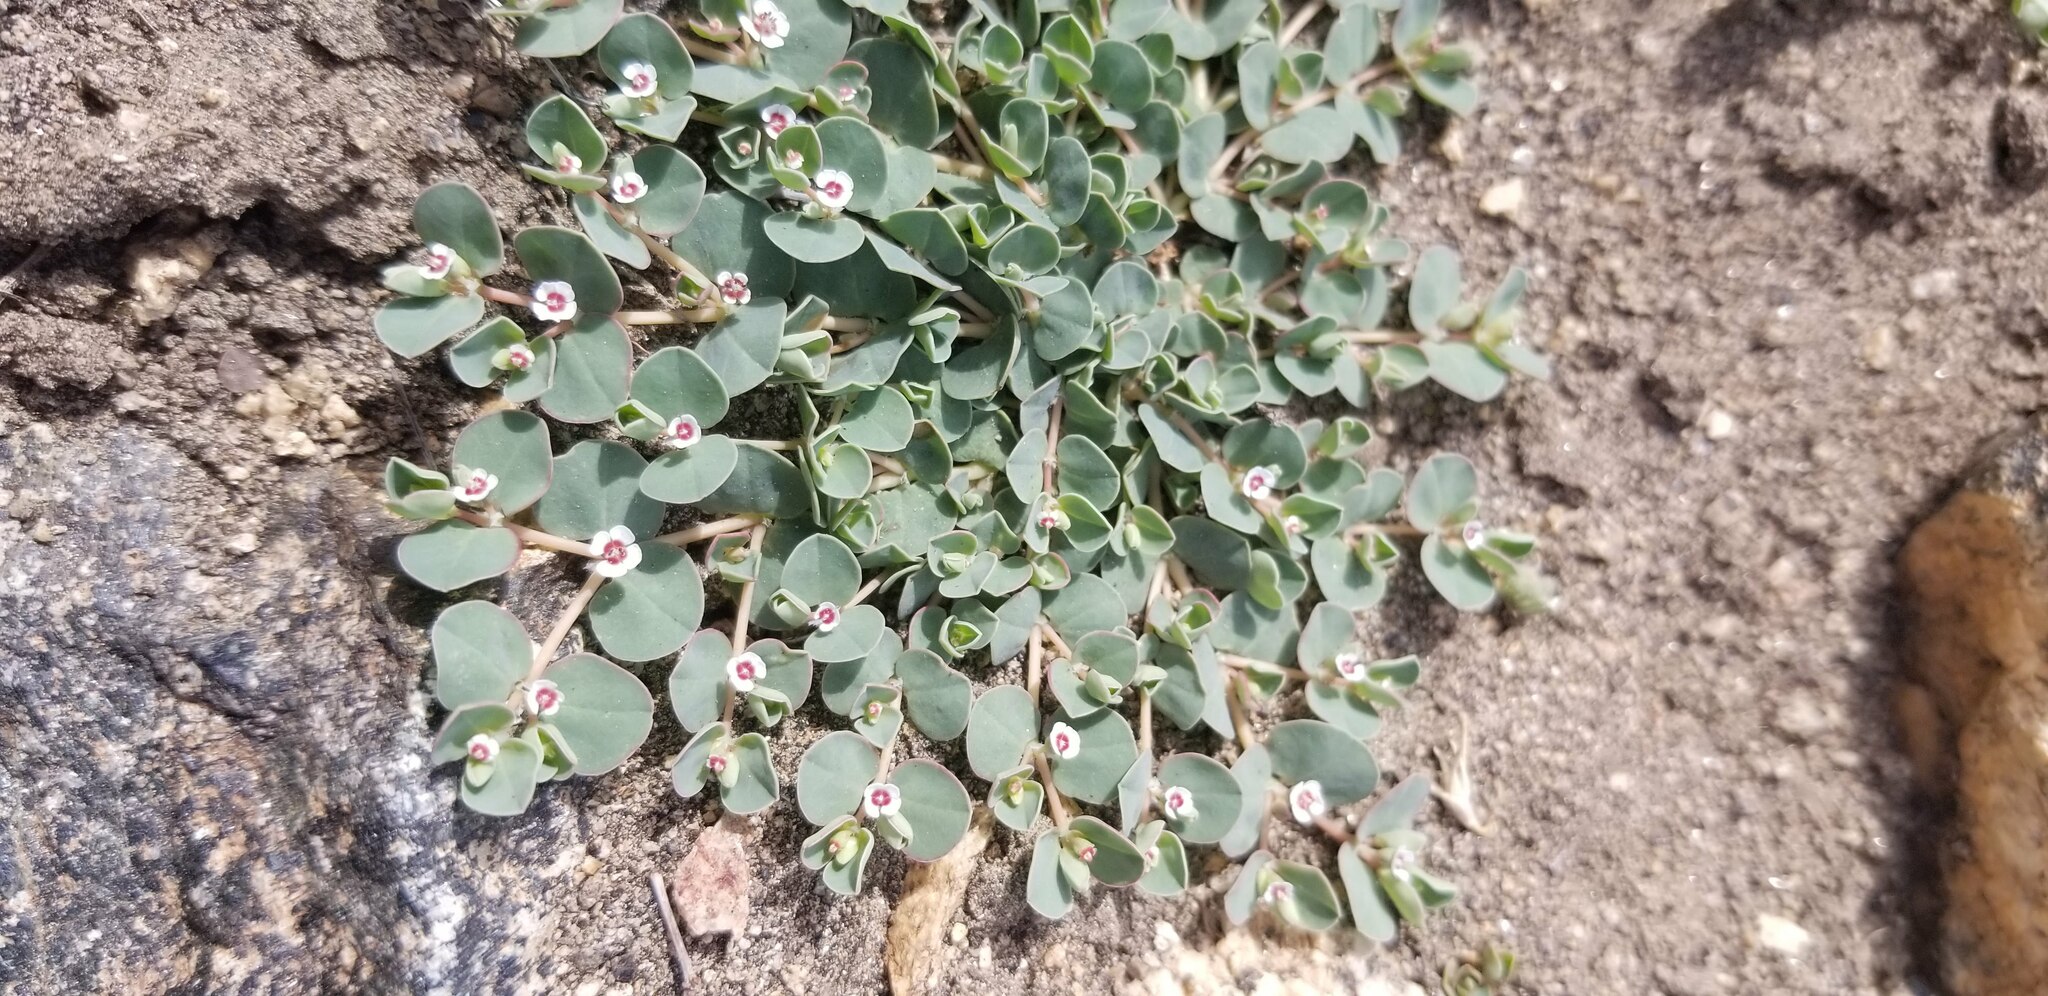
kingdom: Plantae
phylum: Tracheophyta
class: Magnoliopsida
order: Malpighiales
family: Euphorbiaceae
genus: Euphorbia
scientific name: Euphorbia albomarginata
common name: Whitemargin sandmat
